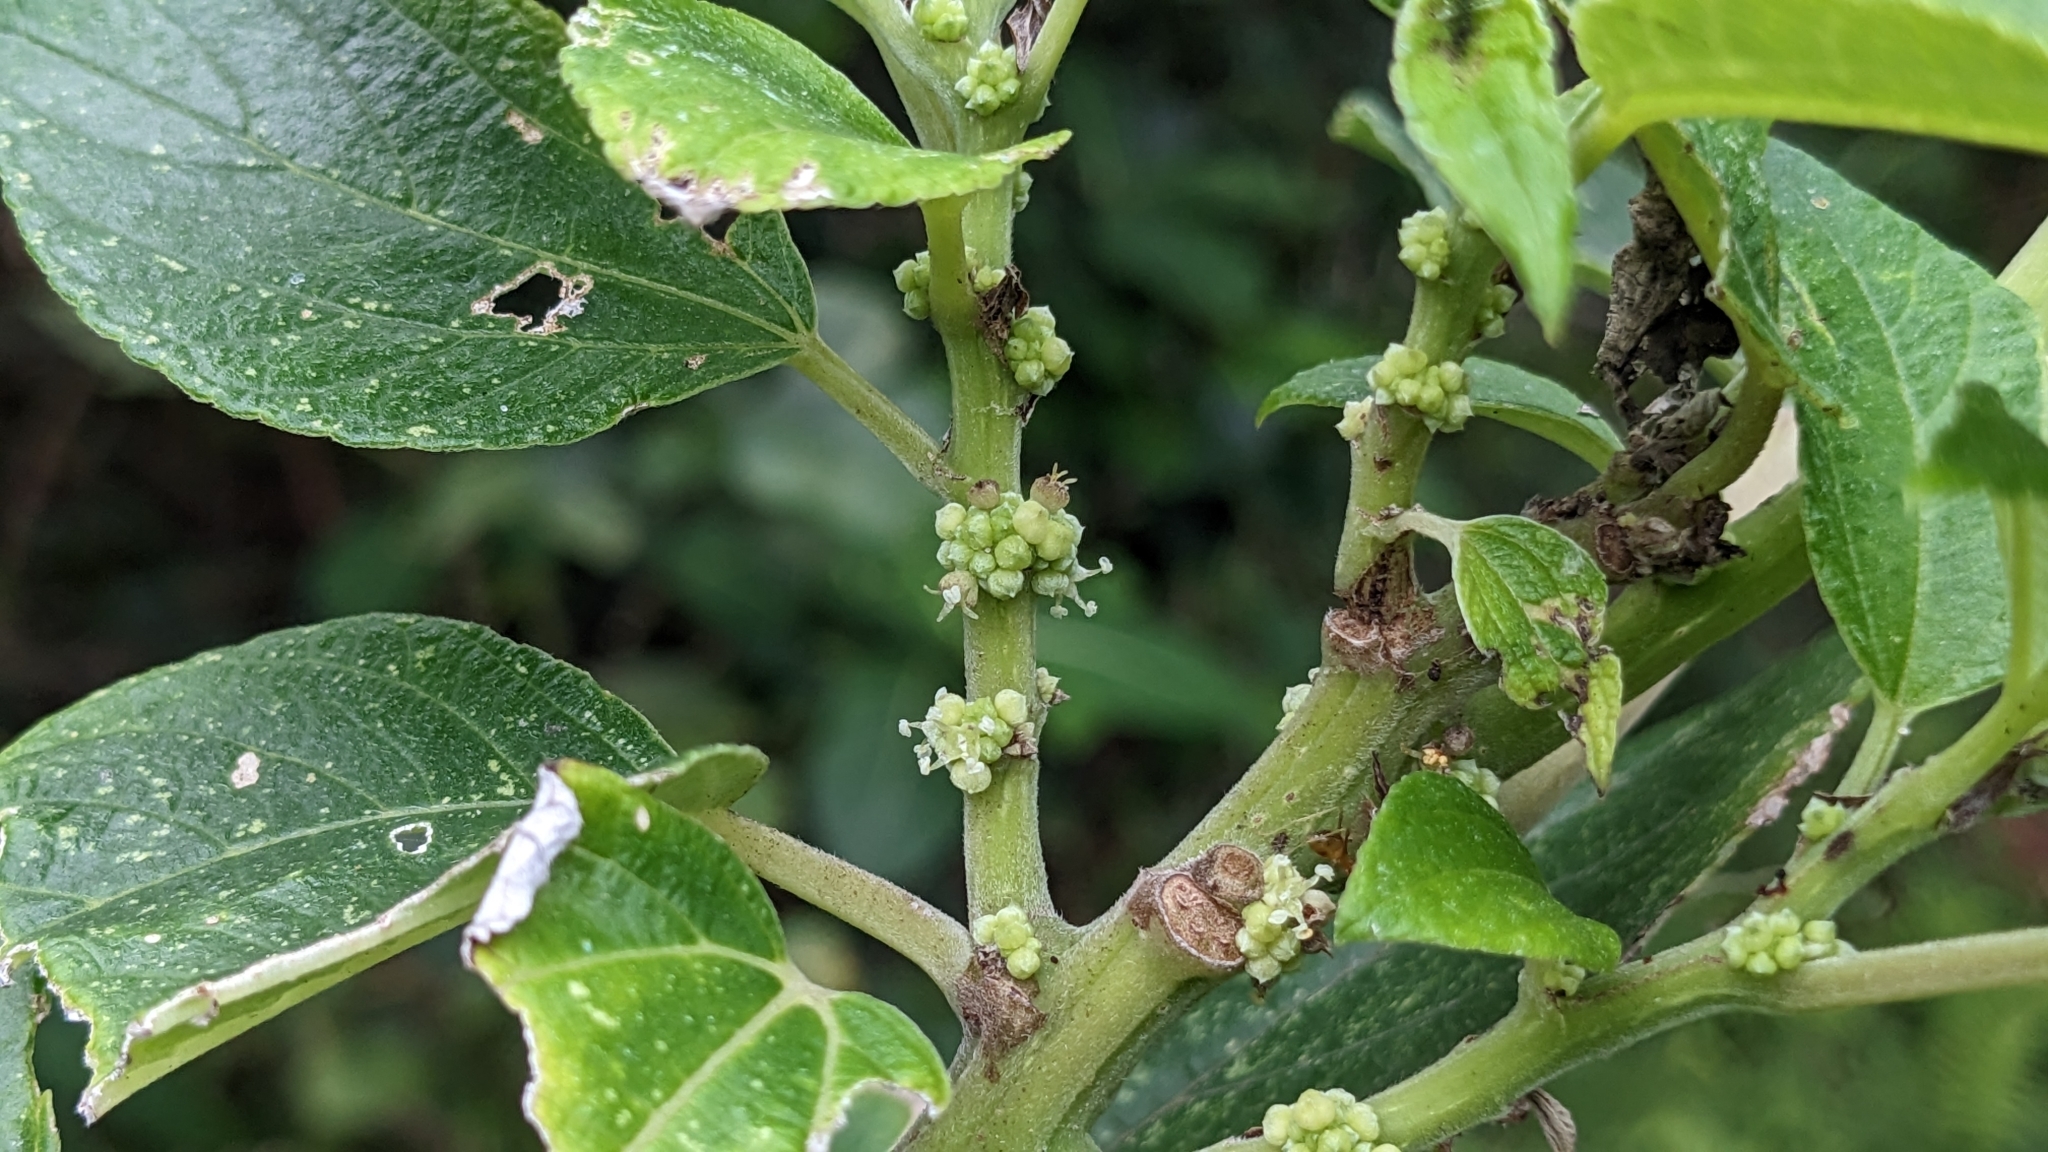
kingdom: Plantae
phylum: Tracheophyta
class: Magnoliopsida
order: Rosales
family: Urticaceae
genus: Pipturus
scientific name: Pipturus arborescens
